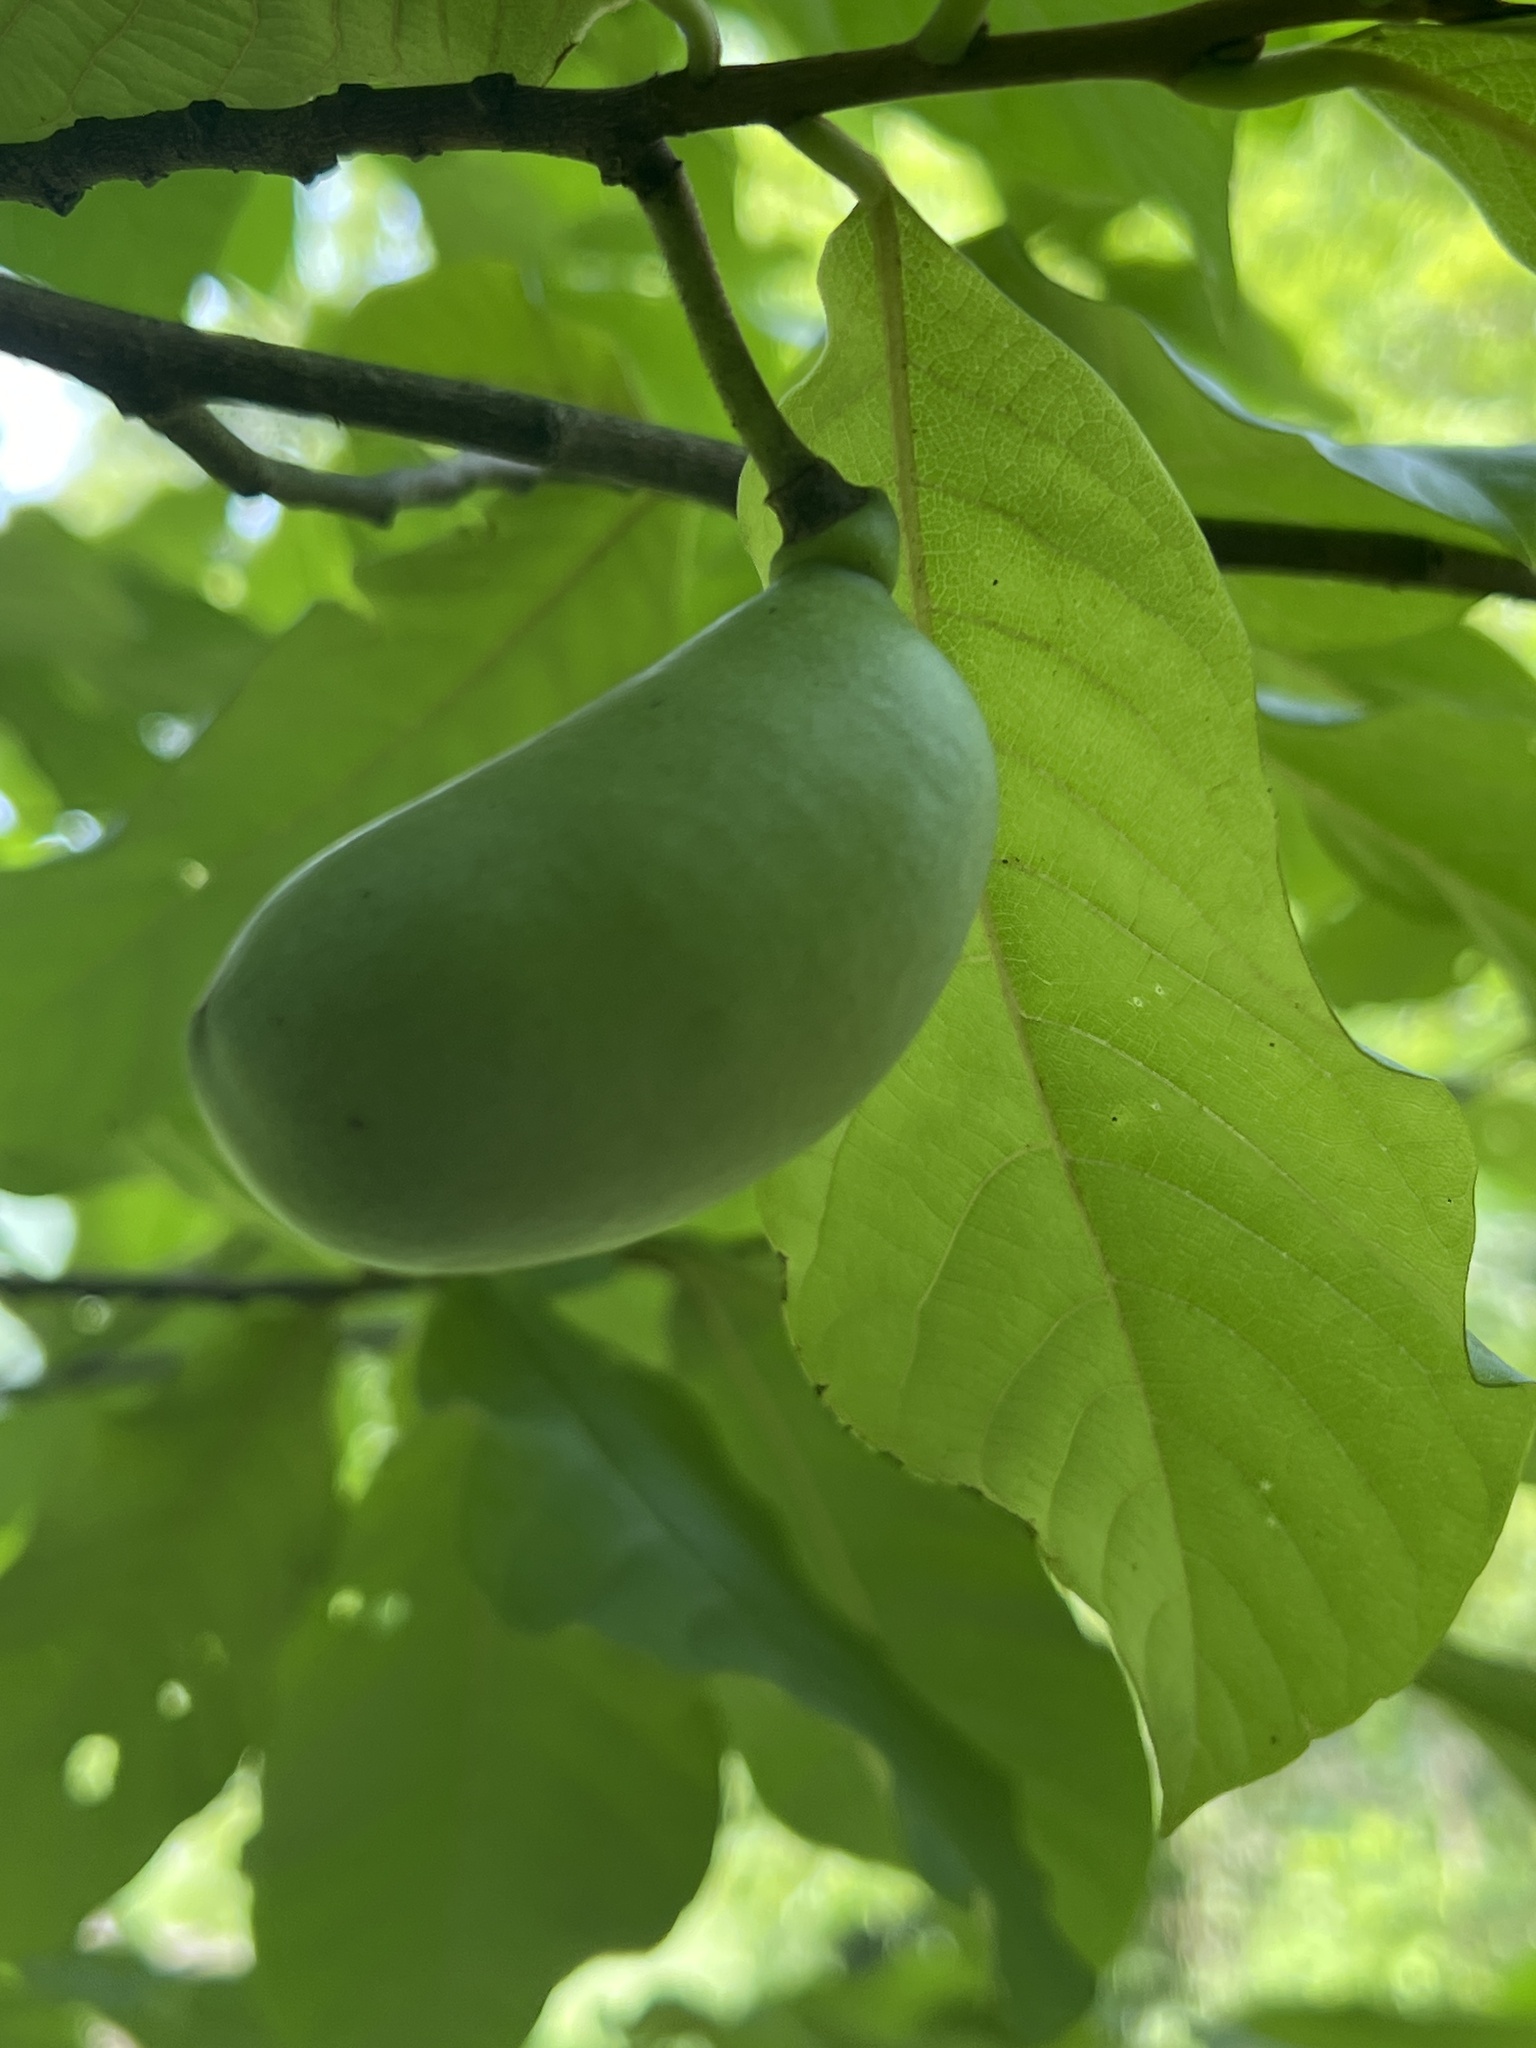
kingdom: Plantae
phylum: Tracheophyta
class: Magnoliopsida
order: Magnoliales
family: Annonaceae
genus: Asimina
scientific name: Asimina triloba
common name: Dog-banana
